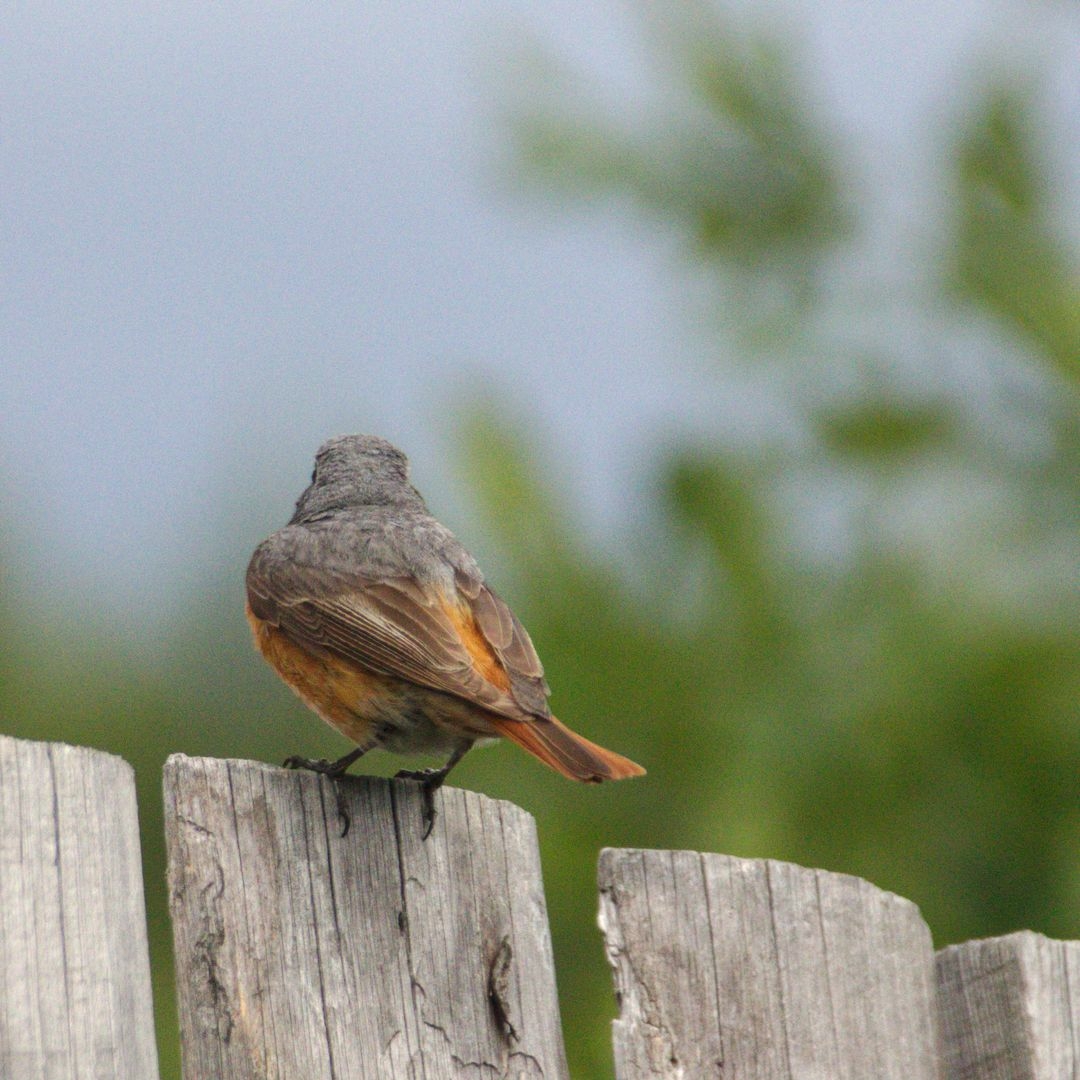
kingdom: Animalia
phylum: Chordata
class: Aves
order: Passeriformes
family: Muscicapidae
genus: Phoenicurus
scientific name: Phoenicurus phoenicurus
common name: Common redstart
